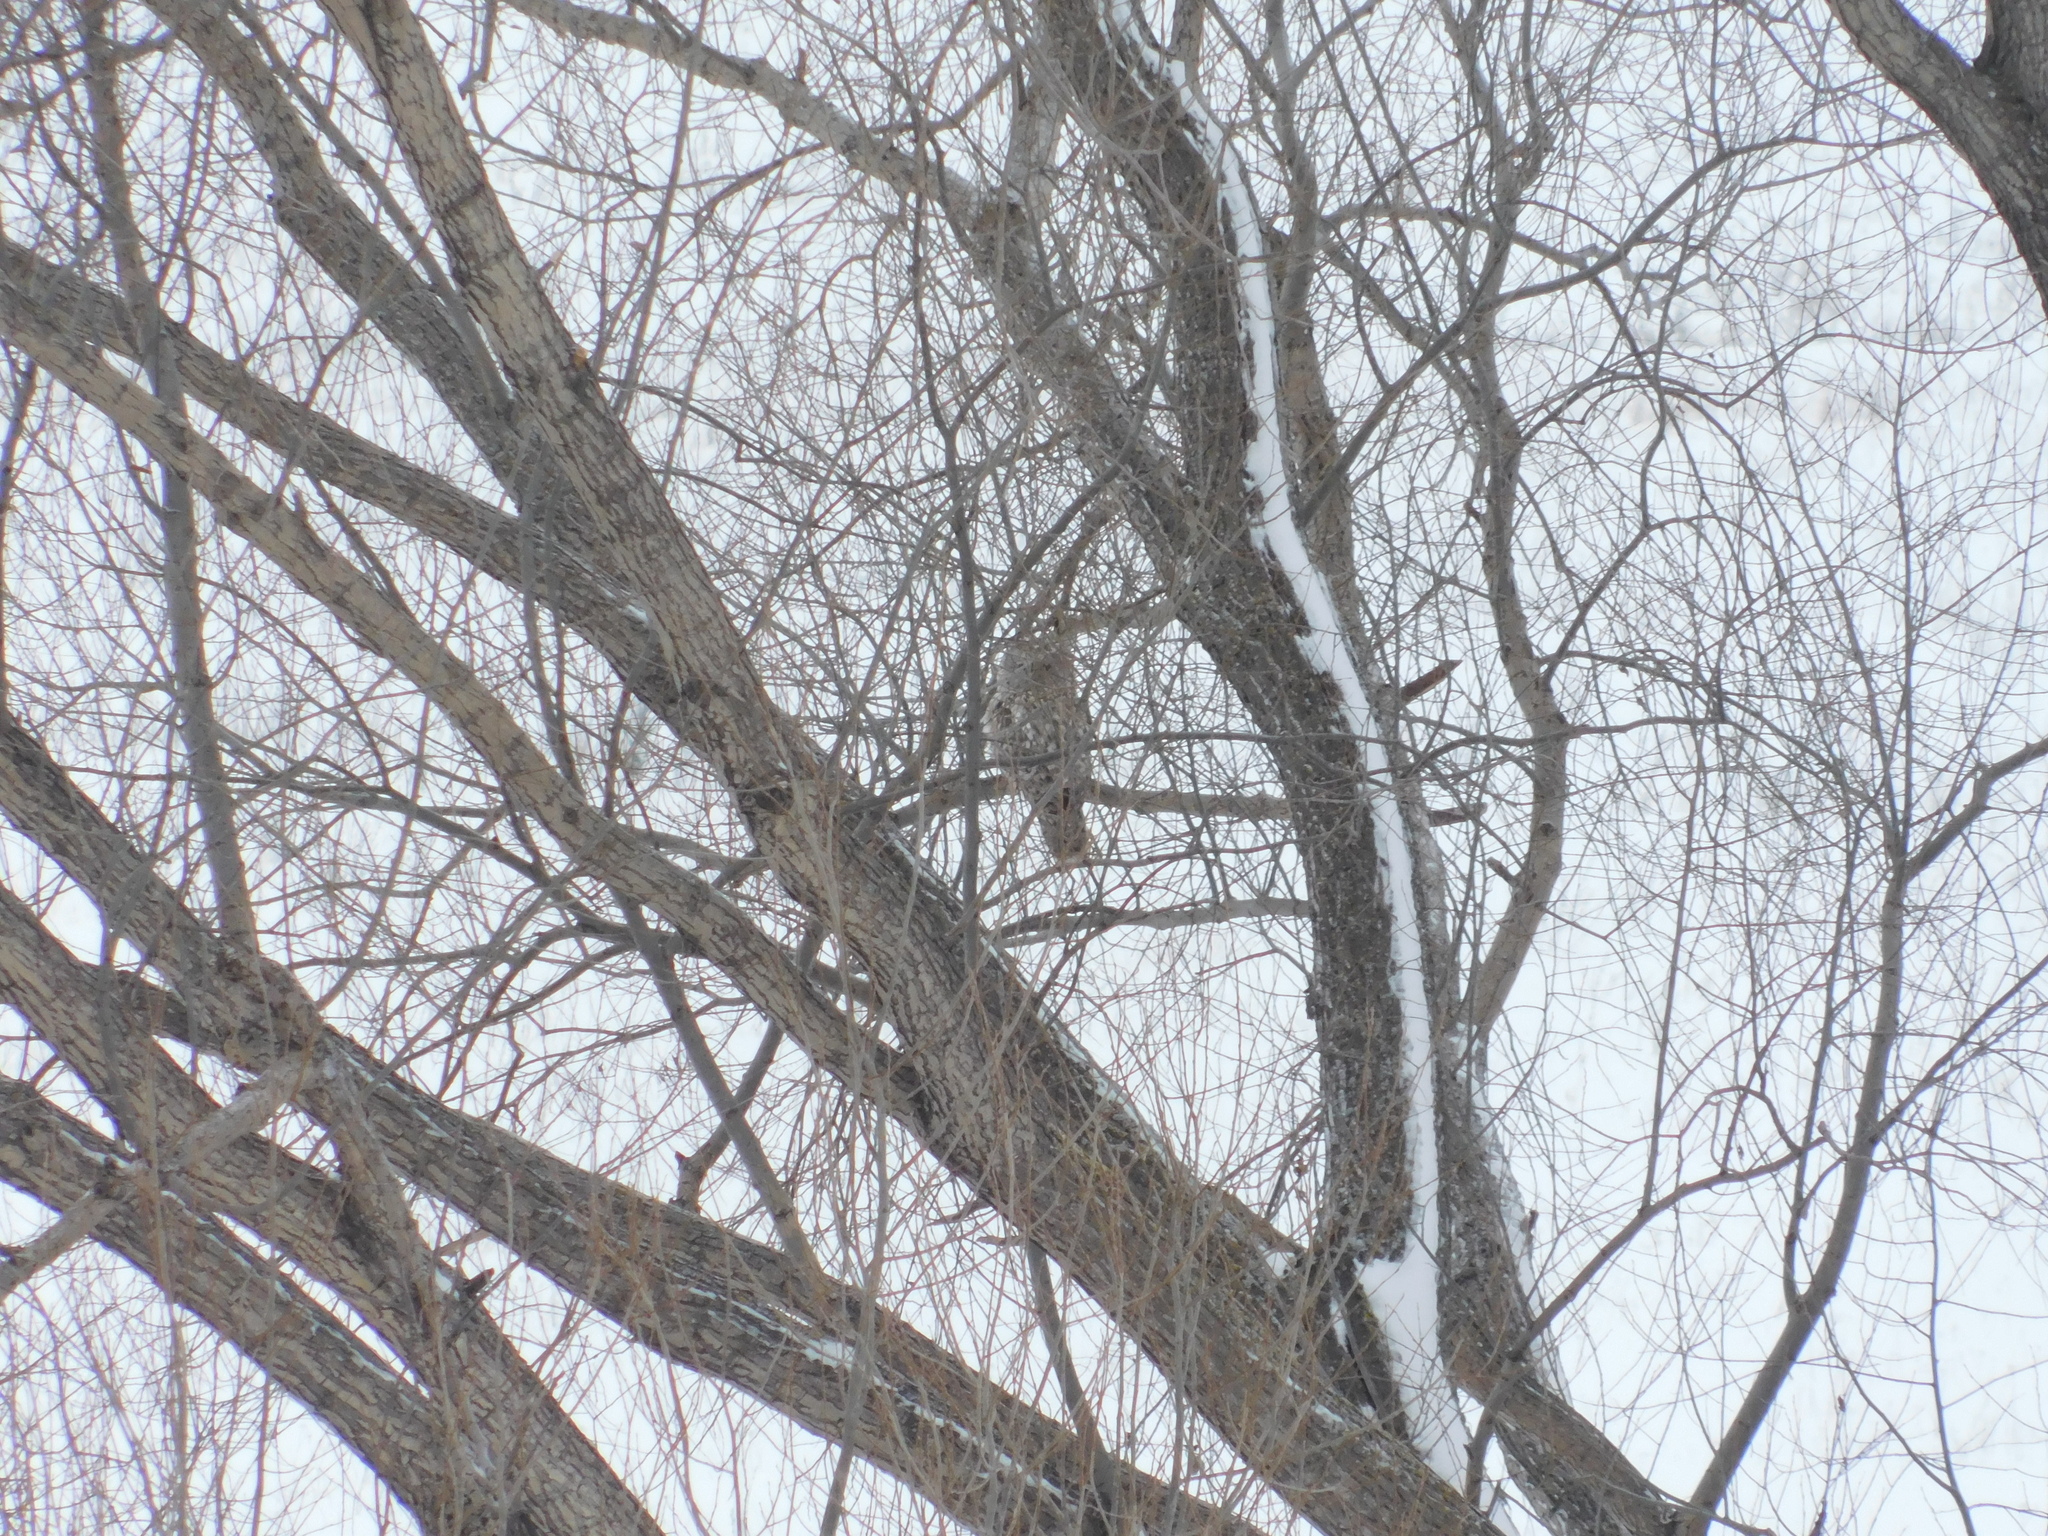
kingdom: Animalia
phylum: Chordata
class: Aves
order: Strigiformes
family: Strigidae
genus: Strix
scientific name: Strix uralensis
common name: Ural owl
